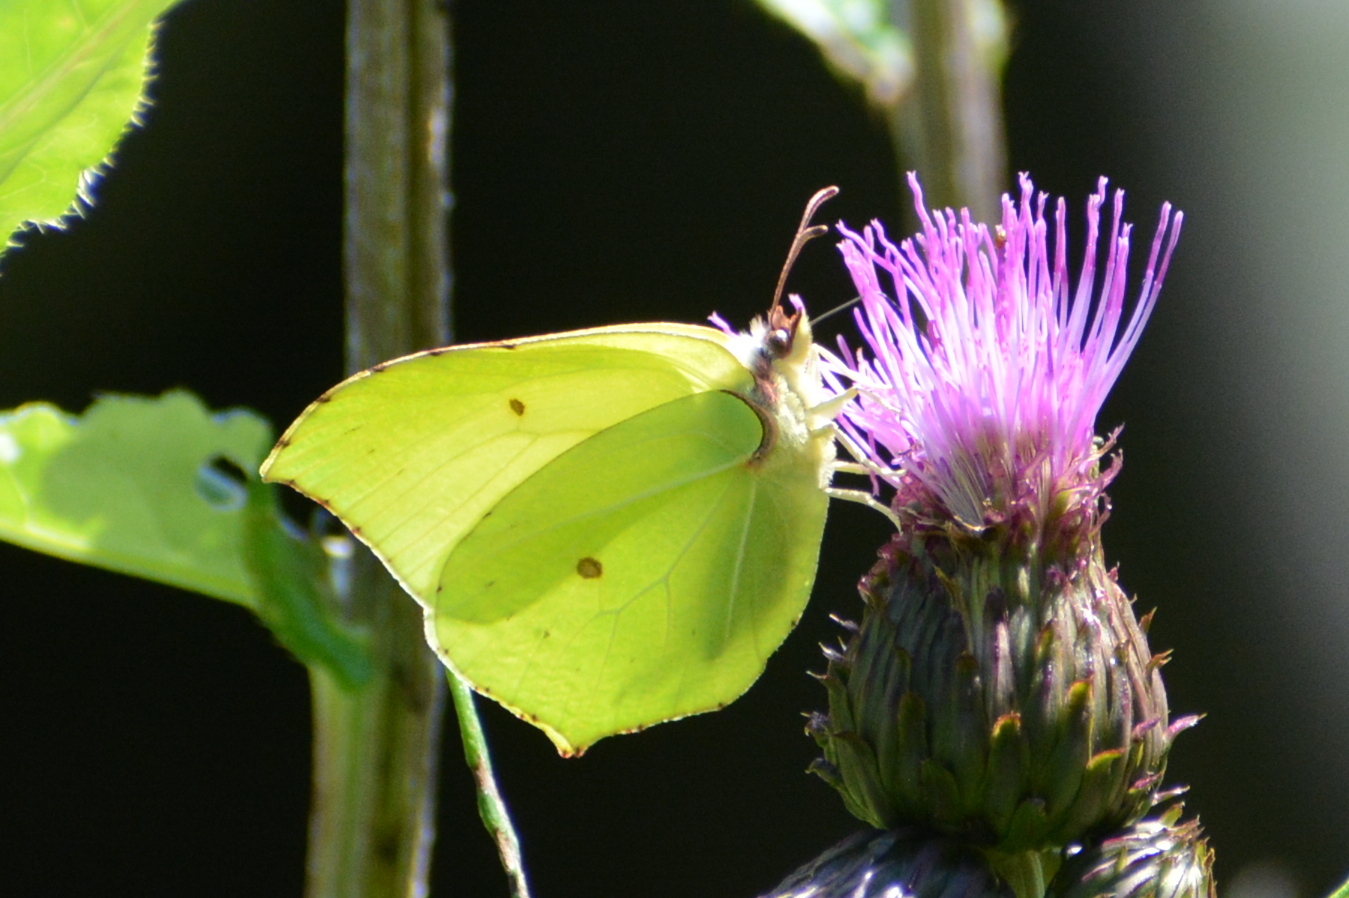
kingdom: Animalia
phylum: Arthropoda
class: Insecta
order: Lepidoptera
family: Pieridae
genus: Gonepteryx
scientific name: Gonepteryx rhamni
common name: Brimstone
